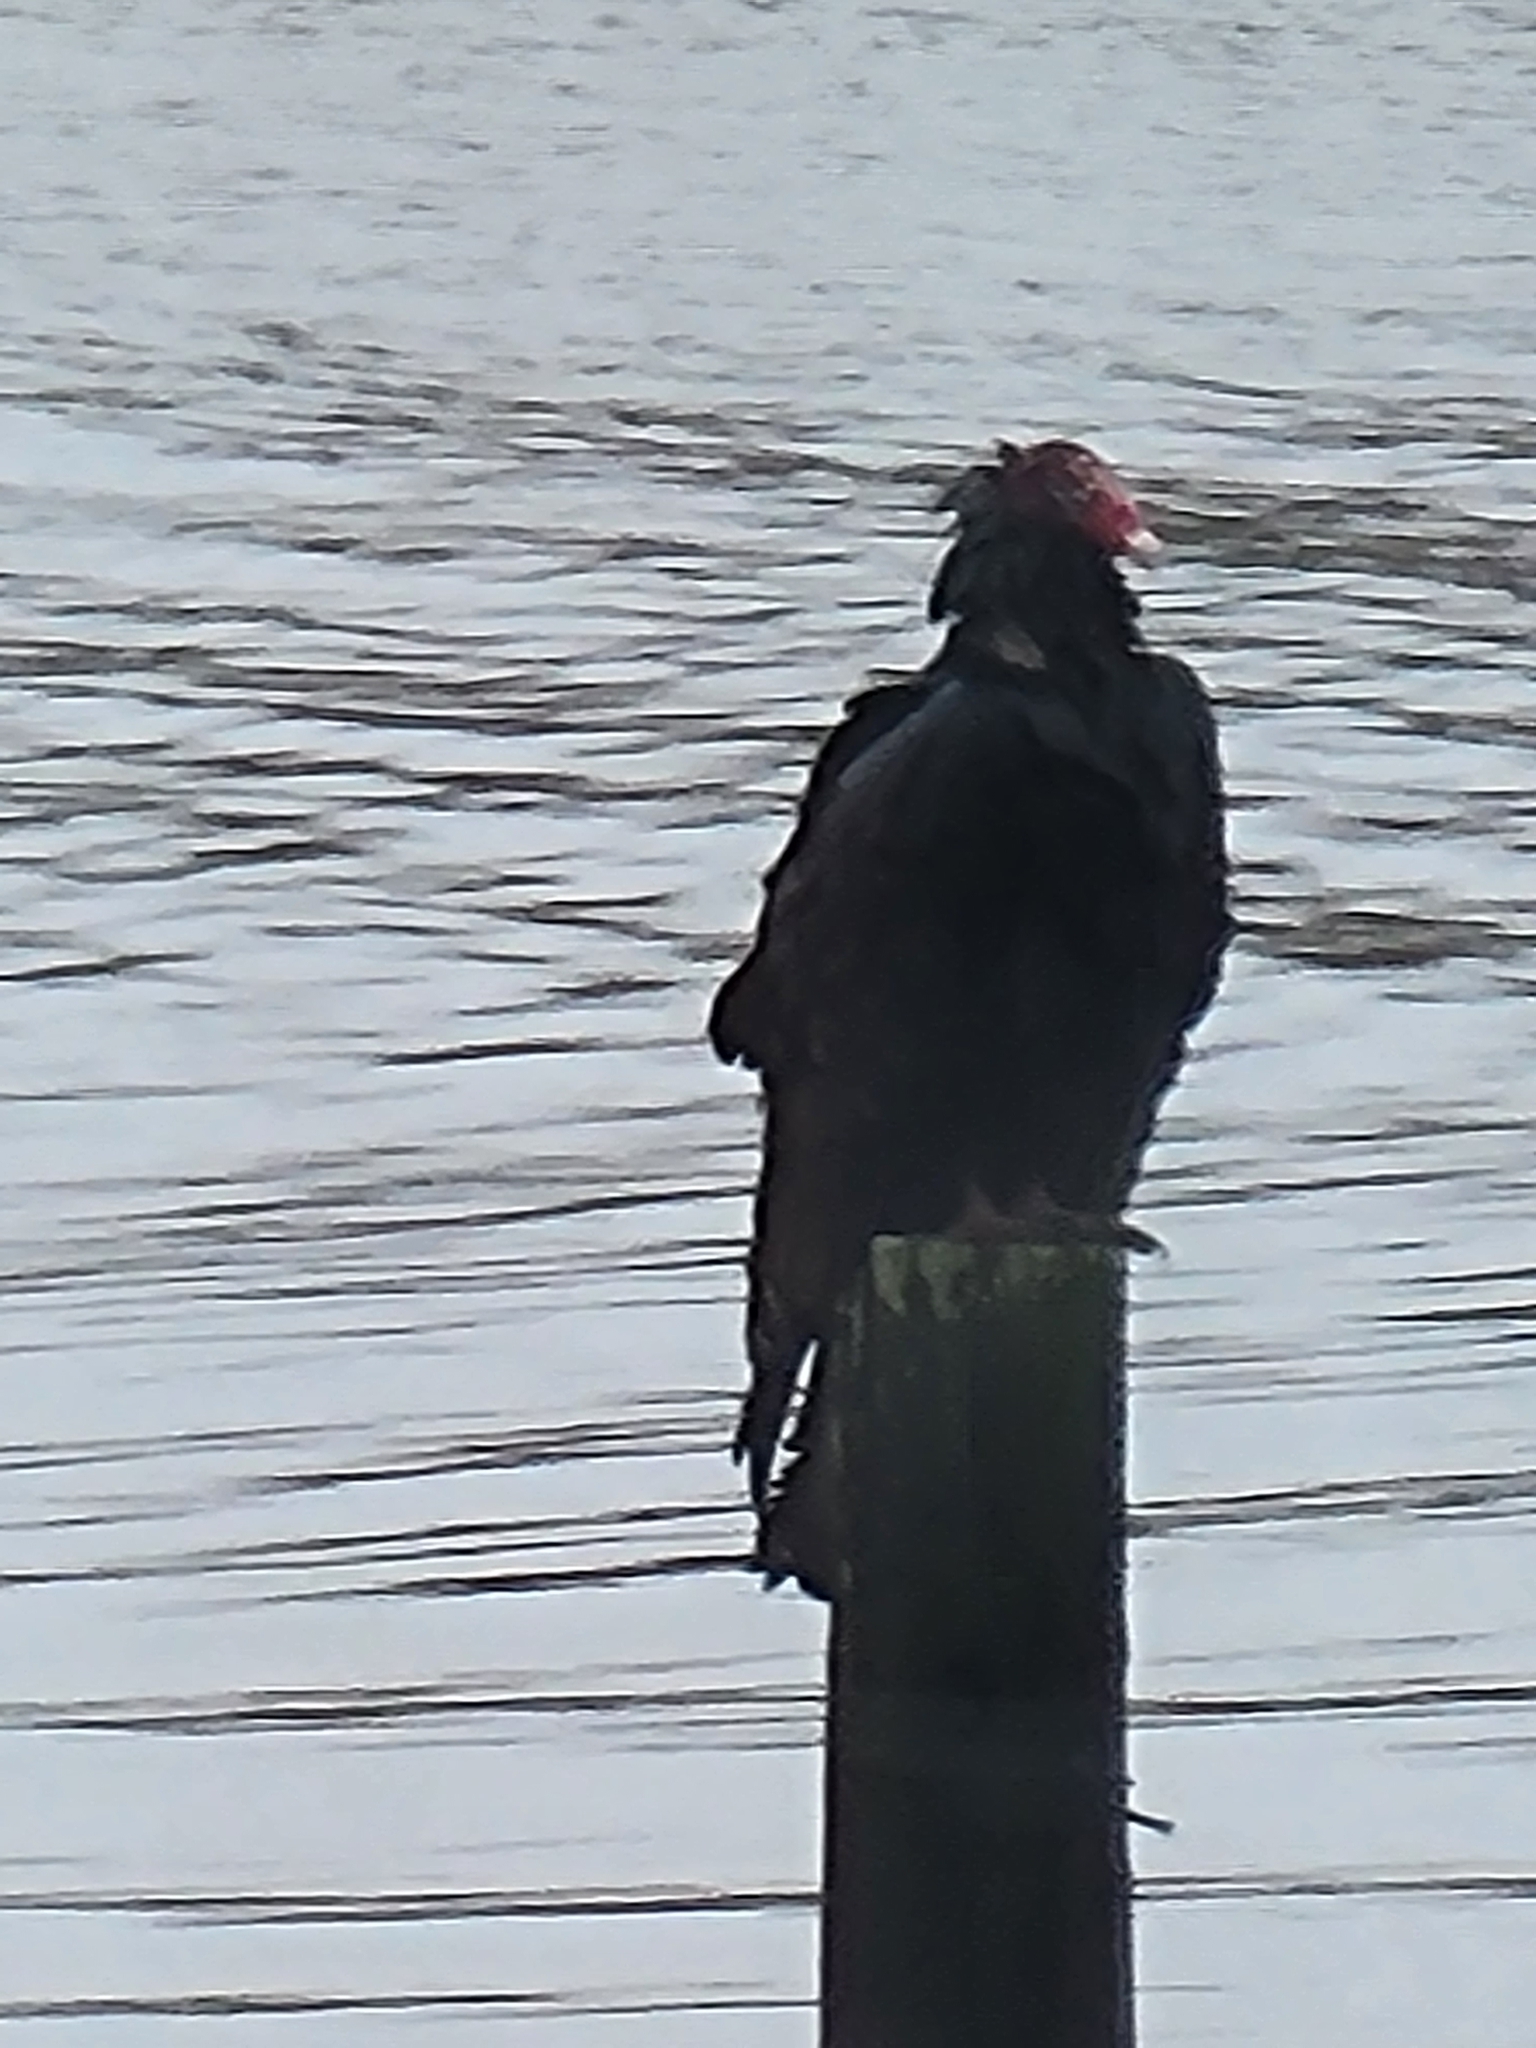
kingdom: Animalia
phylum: Chordata
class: Aves
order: Accipitriformes
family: Cathartidae
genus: Cathartes
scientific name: Cathartes aura
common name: Turkey vulture
